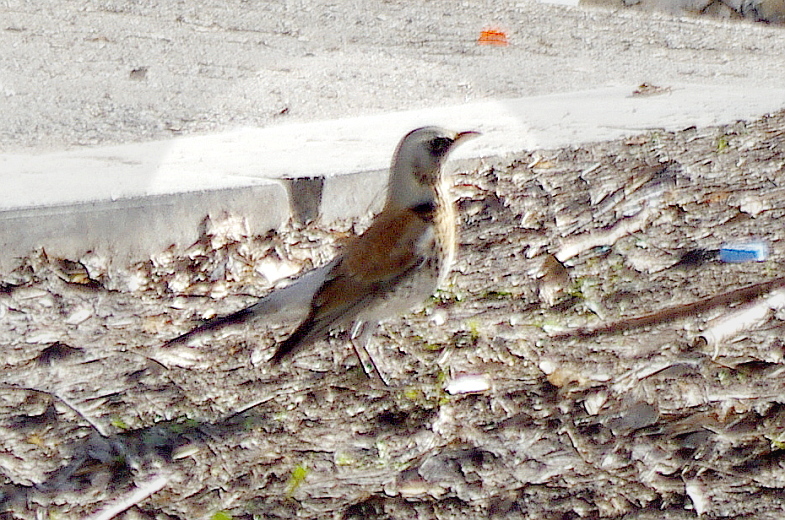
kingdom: Animalia
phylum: Chordata
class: Aves
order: Passeriformes
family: Turdidae
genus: Turdus
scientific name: Turdus pilaris
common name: Fieldfare
